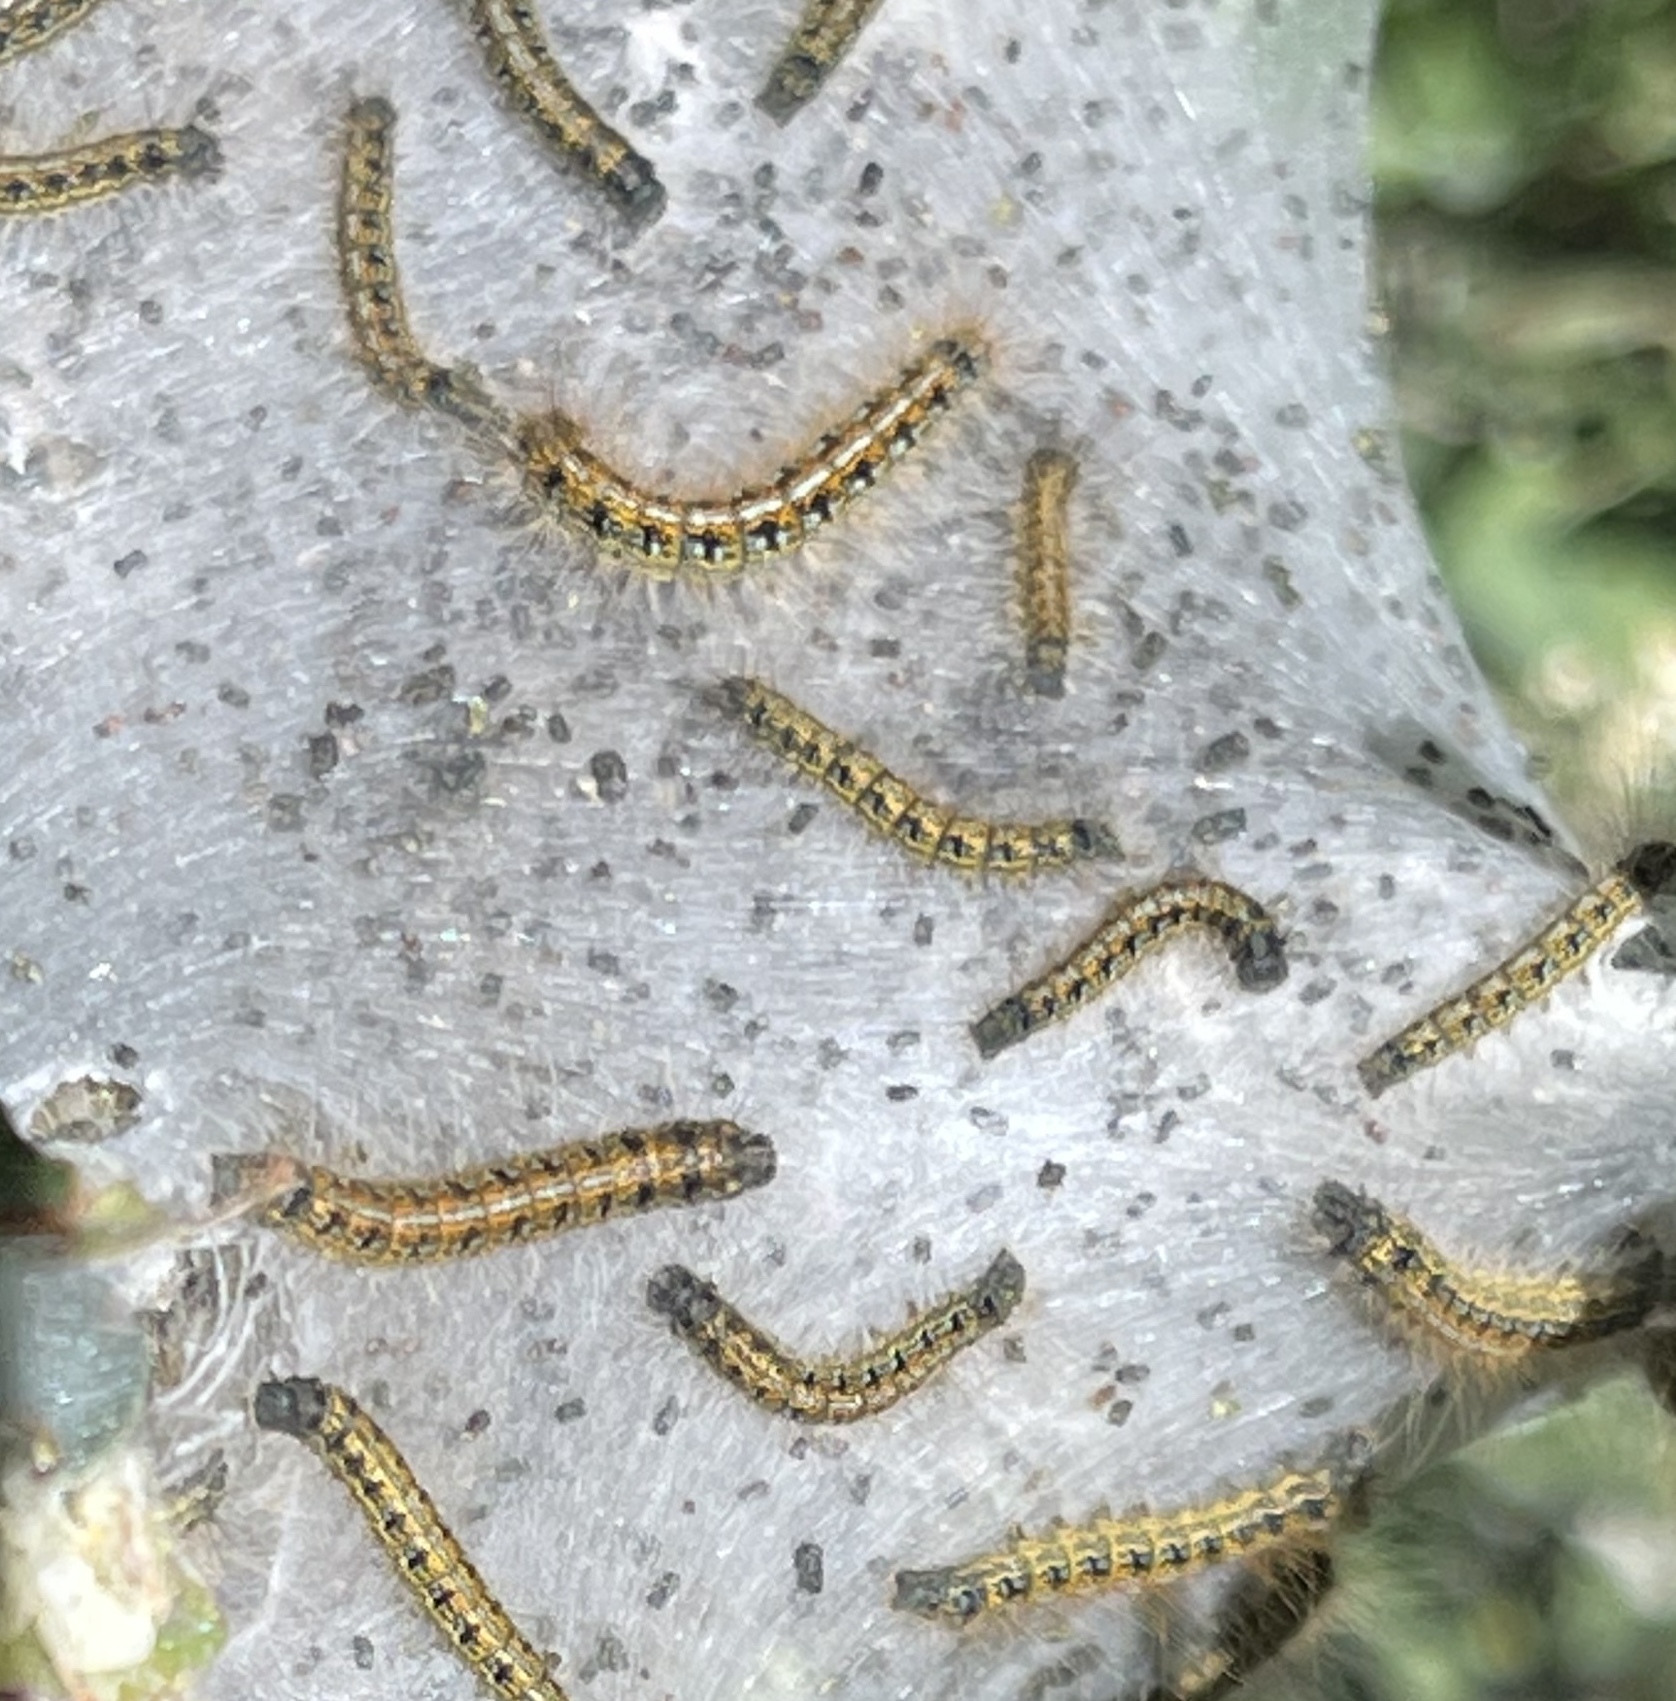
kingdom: Animalia
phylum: Arthropoda
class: Insecta
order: Lepidoptera
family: Lasiocampidae
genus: Malacosoma
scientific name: Malacosoma californica
